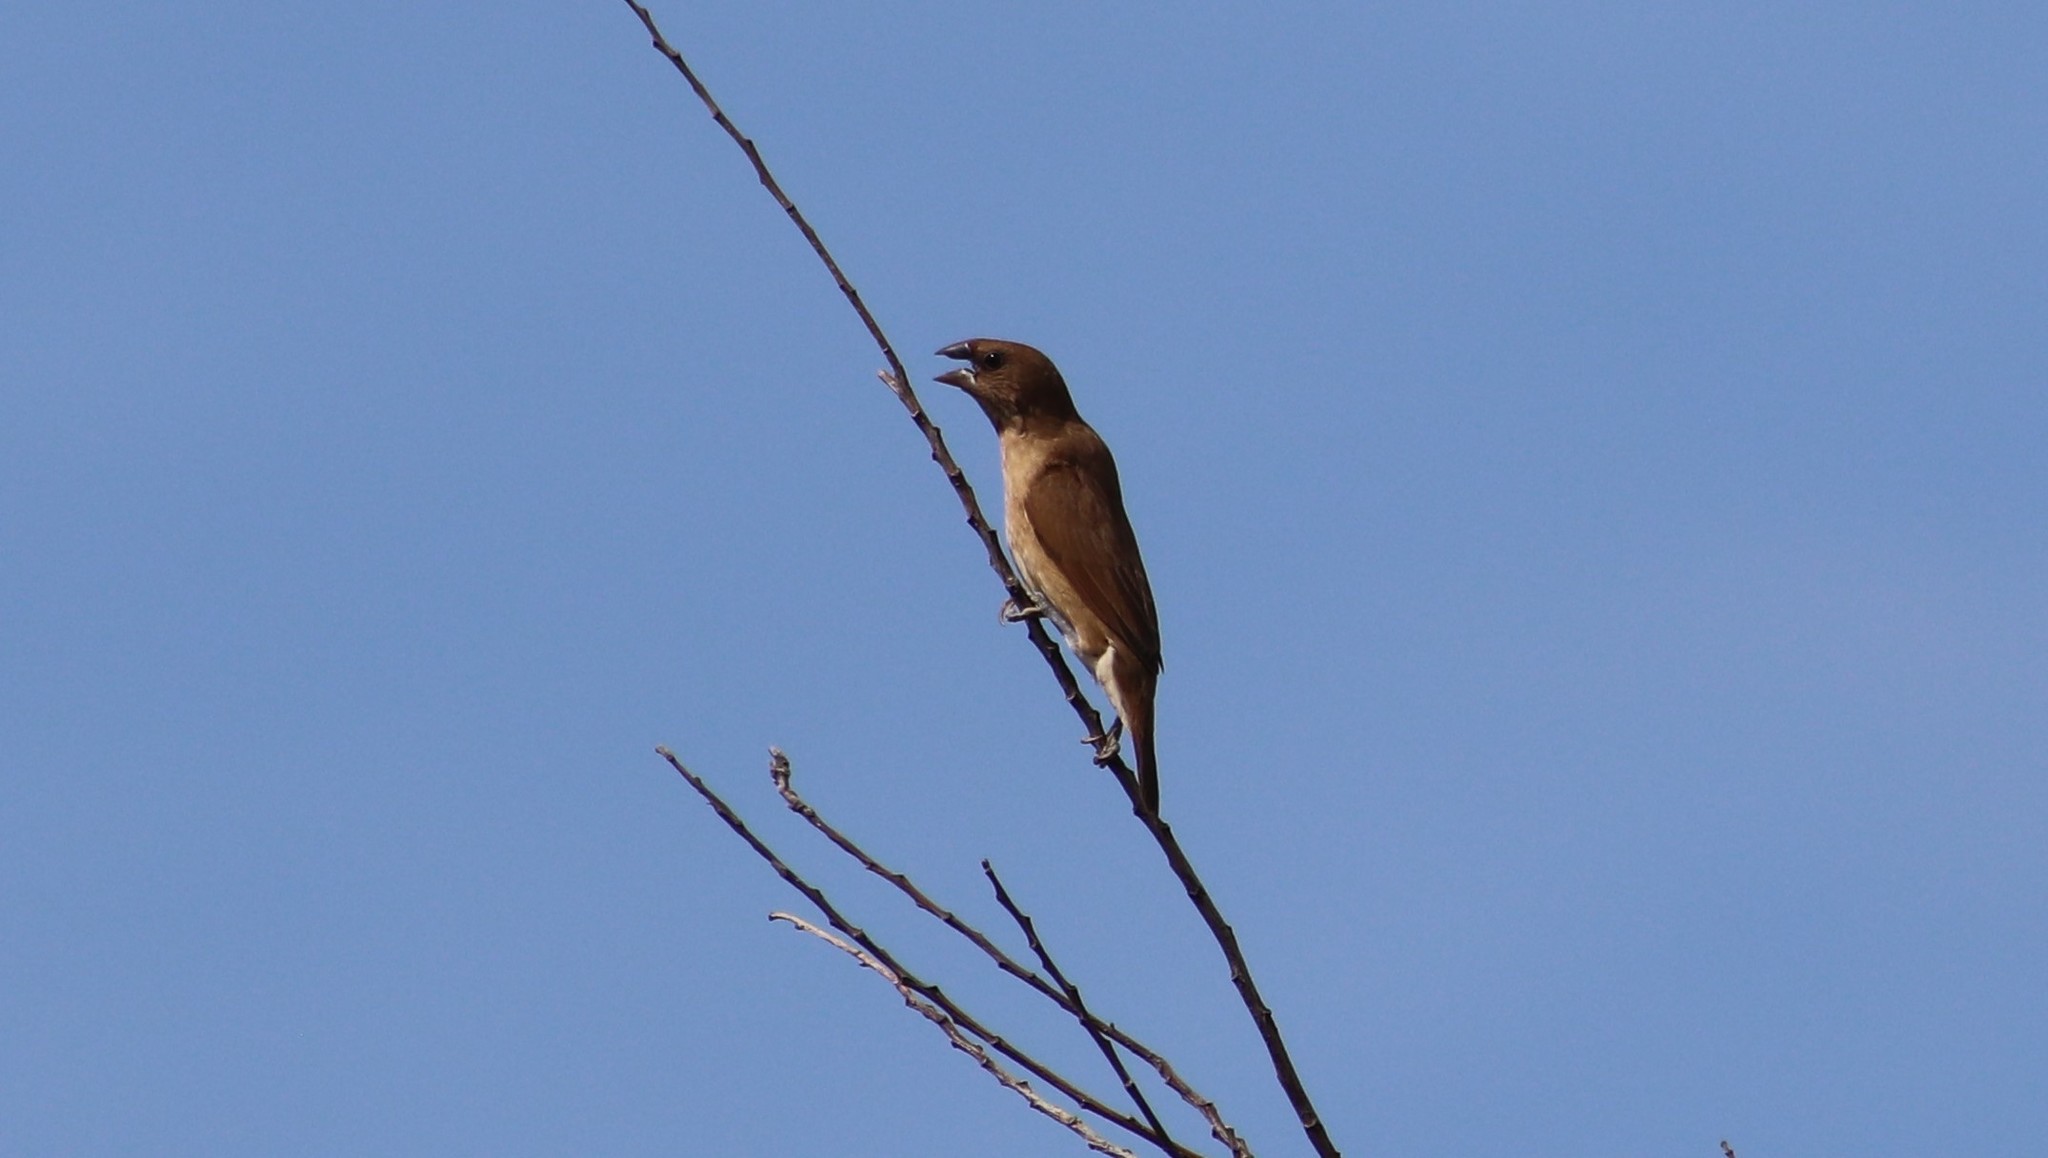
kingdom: Animalia
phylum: Chordata
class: Aves
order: Passeriformes
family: Estrildidae
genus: Lonchura
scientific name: Lonchura punctulata
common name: Scaly-breasted munia
